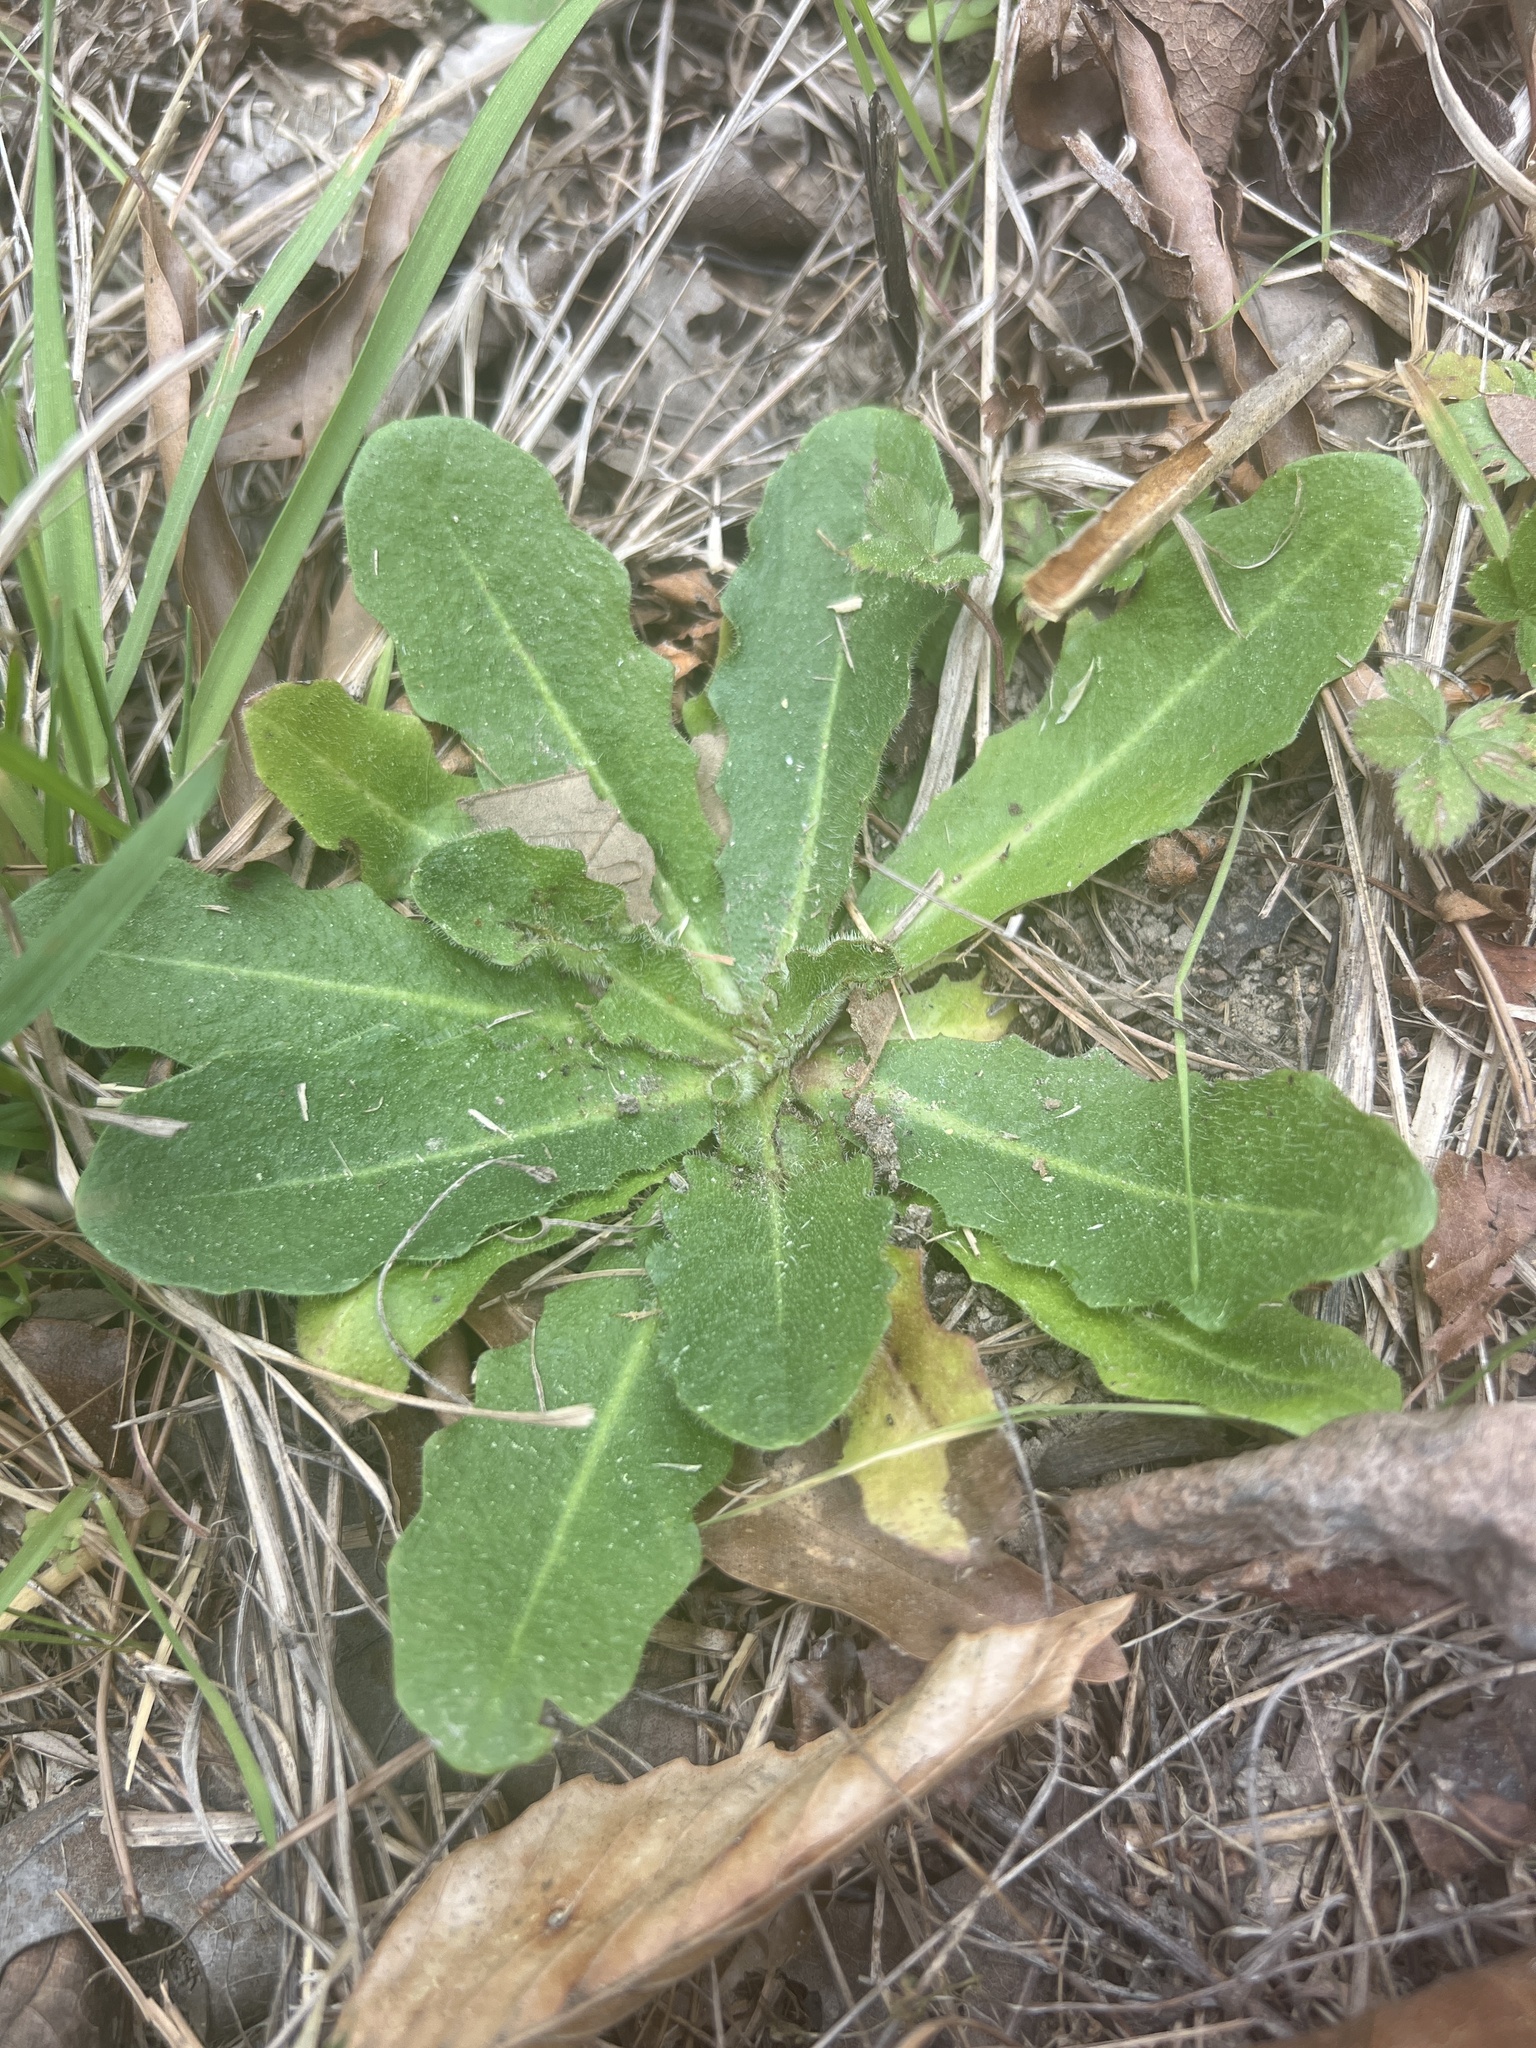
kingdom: Plantae
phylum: Tracheophyta
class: Magnoliopsida
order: Asterales
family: Asteraceae
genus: Hypochaeris
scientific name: Hypochaeris radicata
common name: Flatweed
